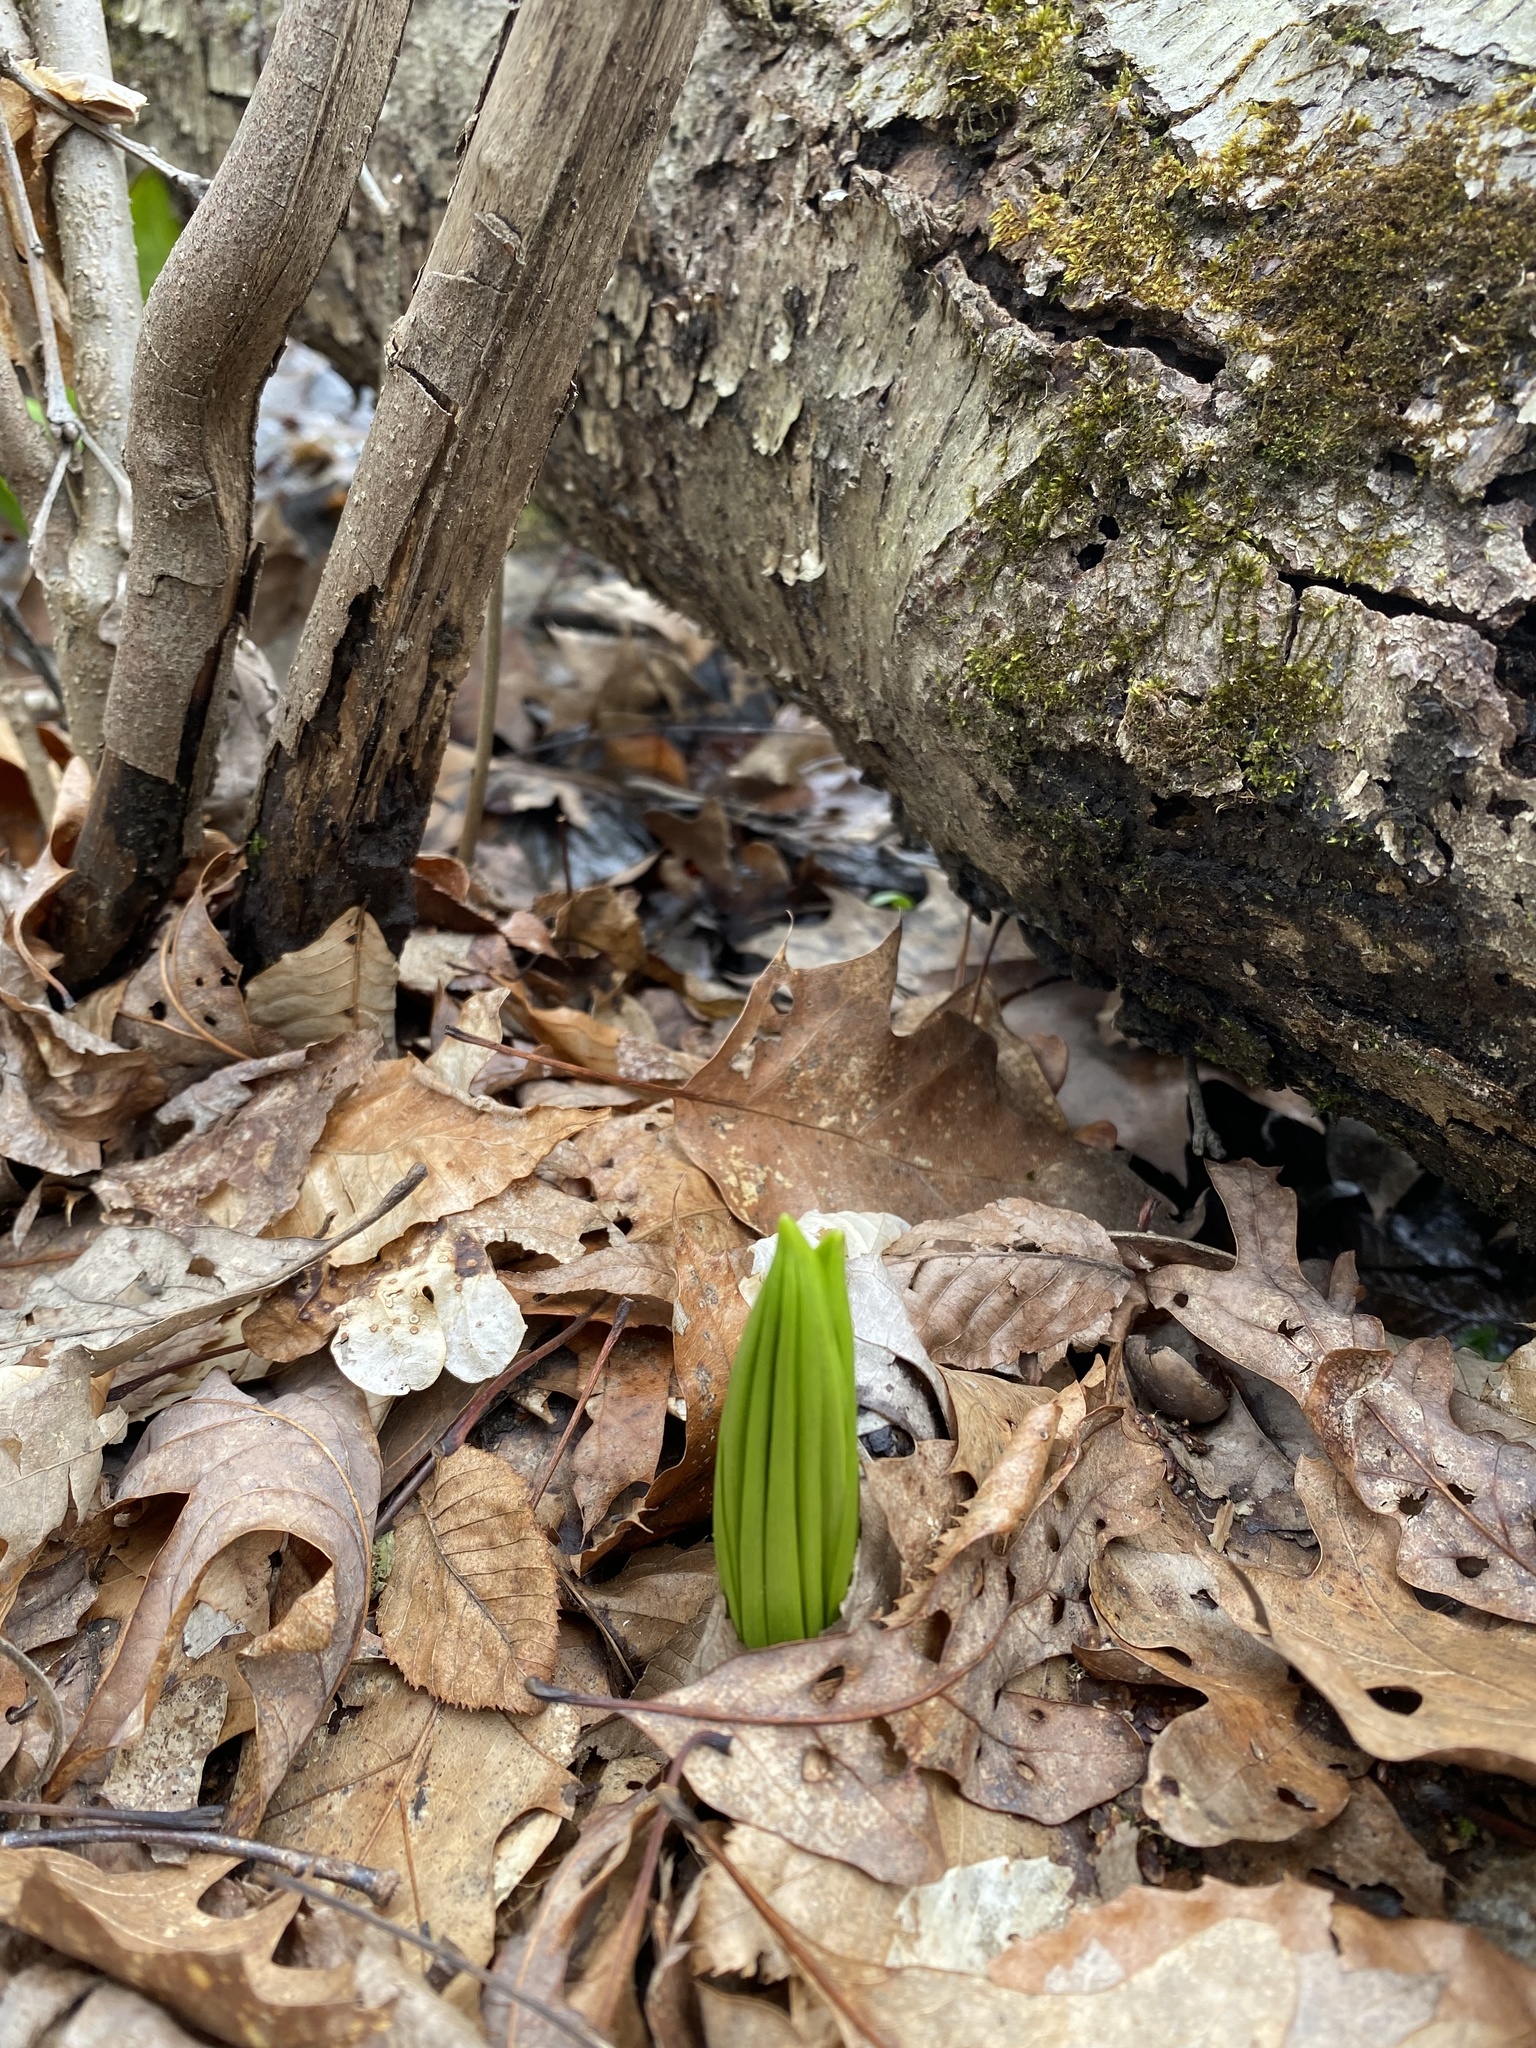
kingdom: Plantae
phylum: Tracheophyta
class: Liliopsida
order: Alismatales
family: Araceae
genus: Symplocarpus
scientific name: Symplocarpus foetidus
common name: Eastern skunk cabbage
